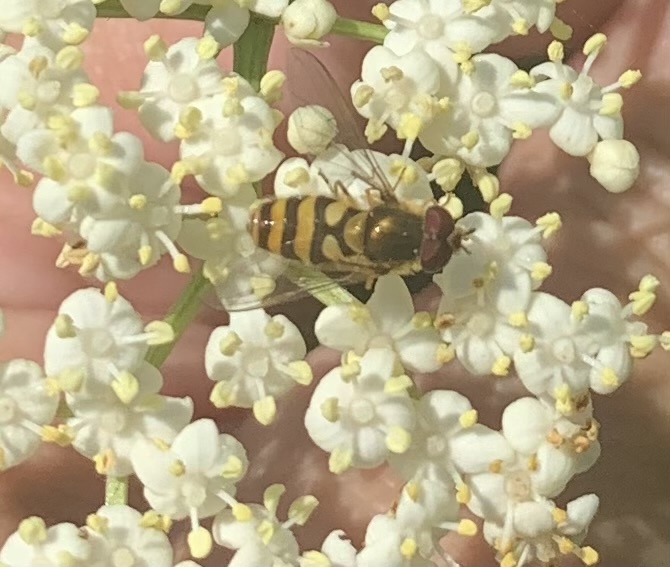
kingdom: Animalia
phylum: Arthropoda
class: Insecta
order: Diptera
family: Syrphidae
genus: Syrphus
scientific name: Syrphus
